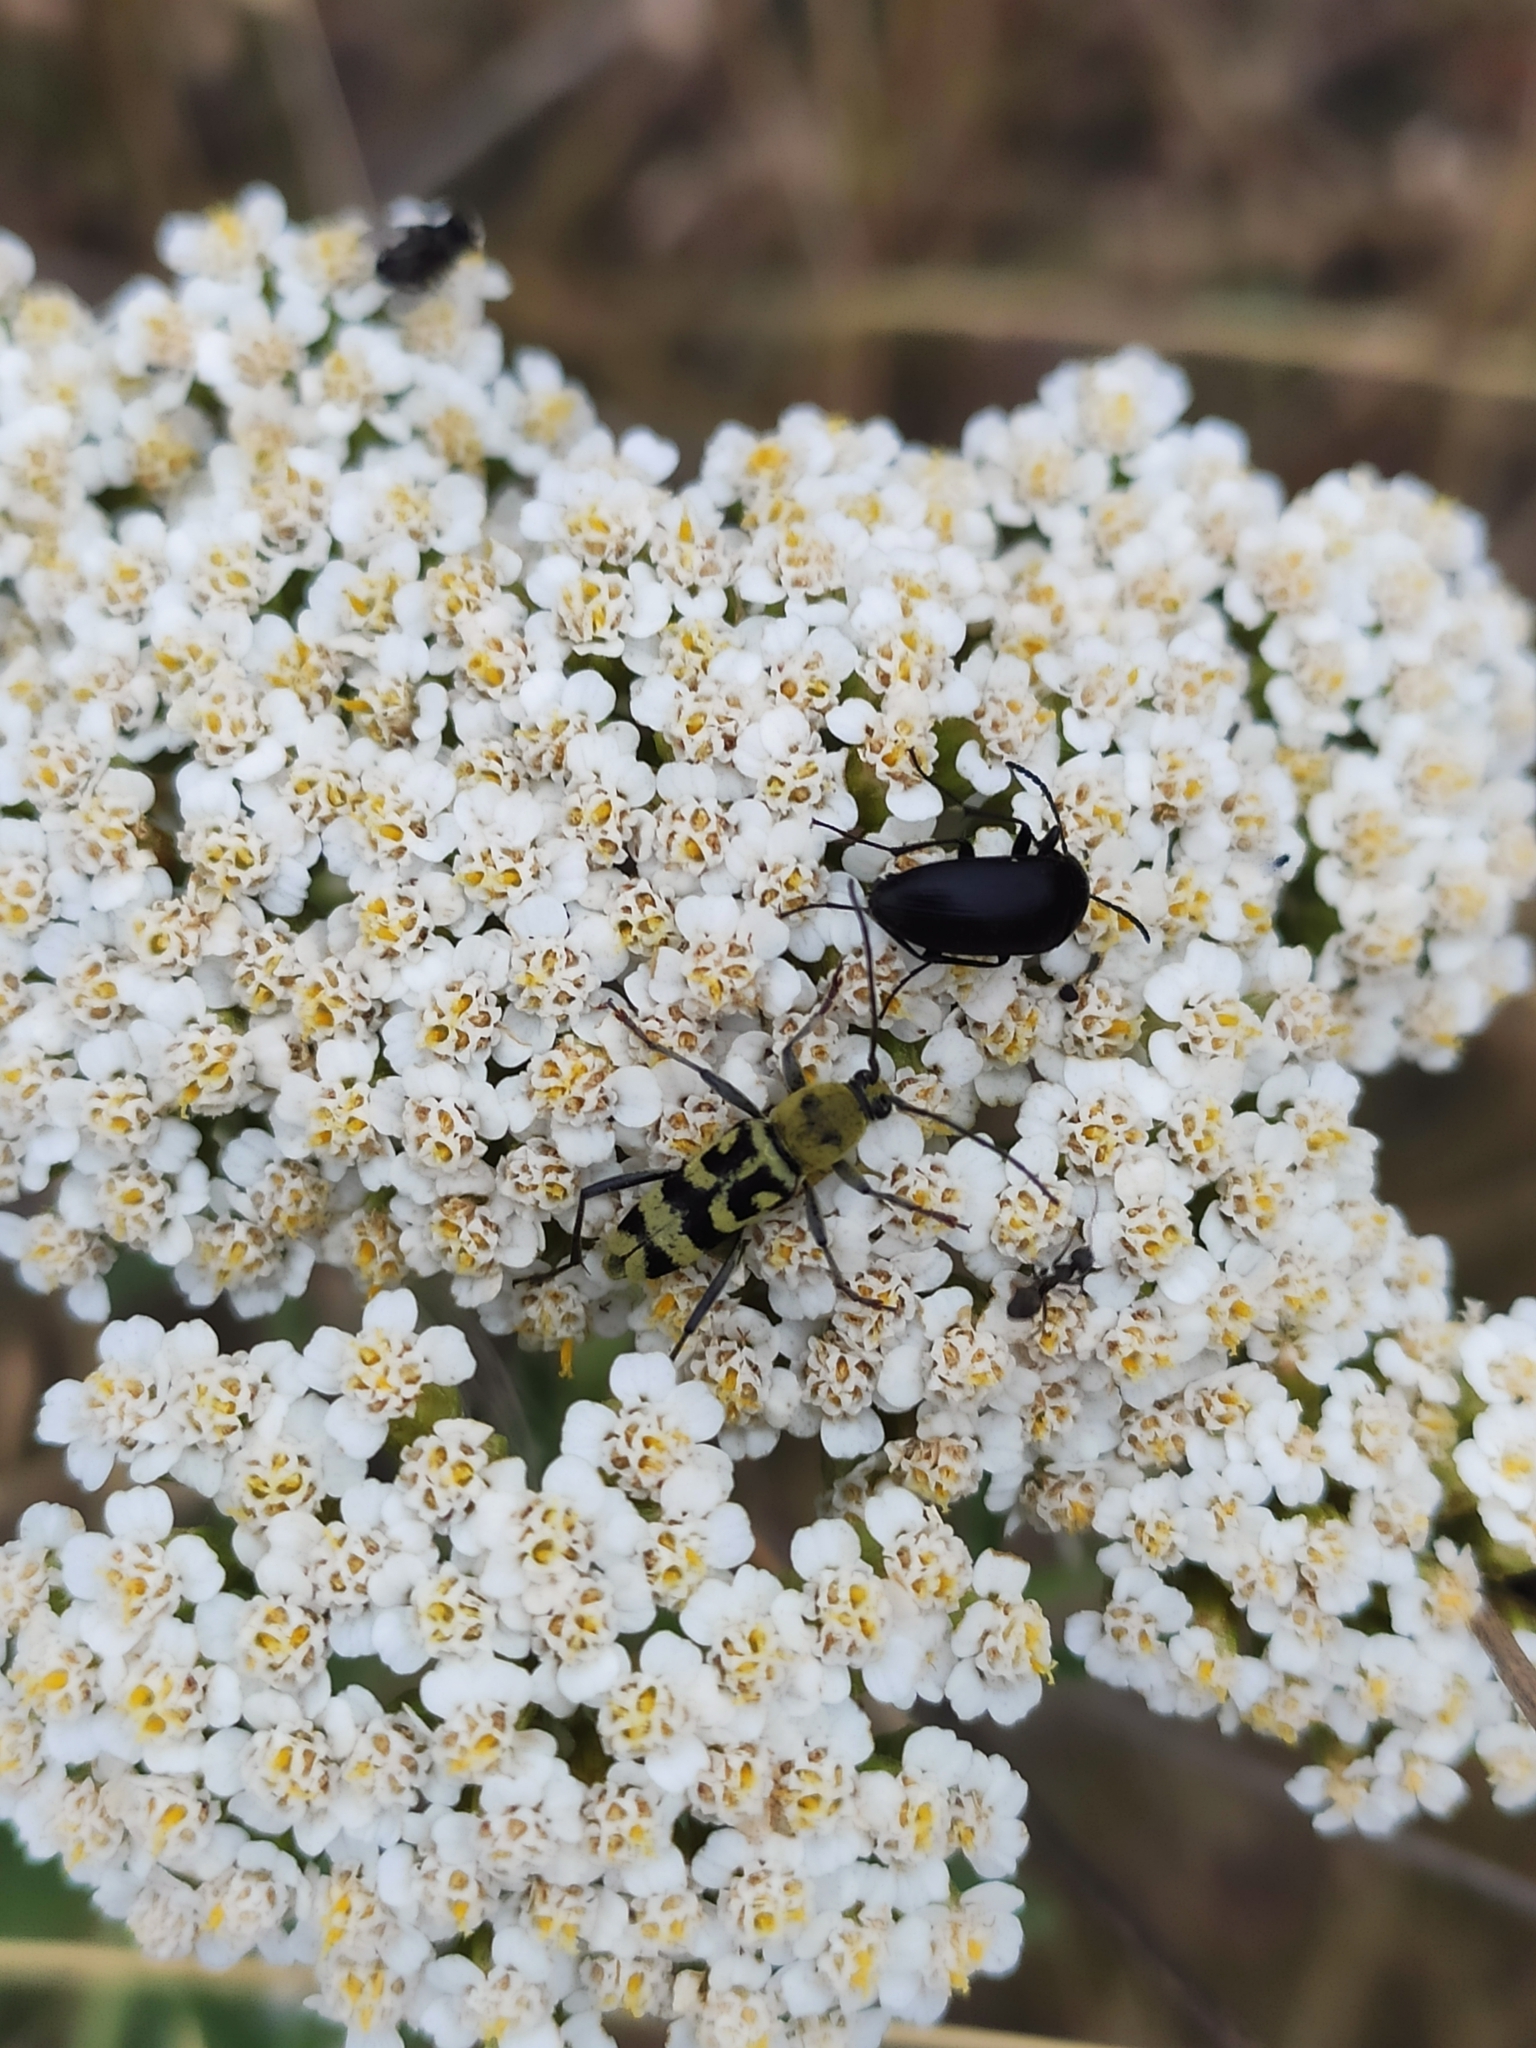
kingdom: Animalia
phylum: Arthropoda
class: Insecta
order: Coleoptera
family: Cerambycidae
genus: Chlorophorus
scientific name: Chlorophorus varius
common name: Grape wood borer
